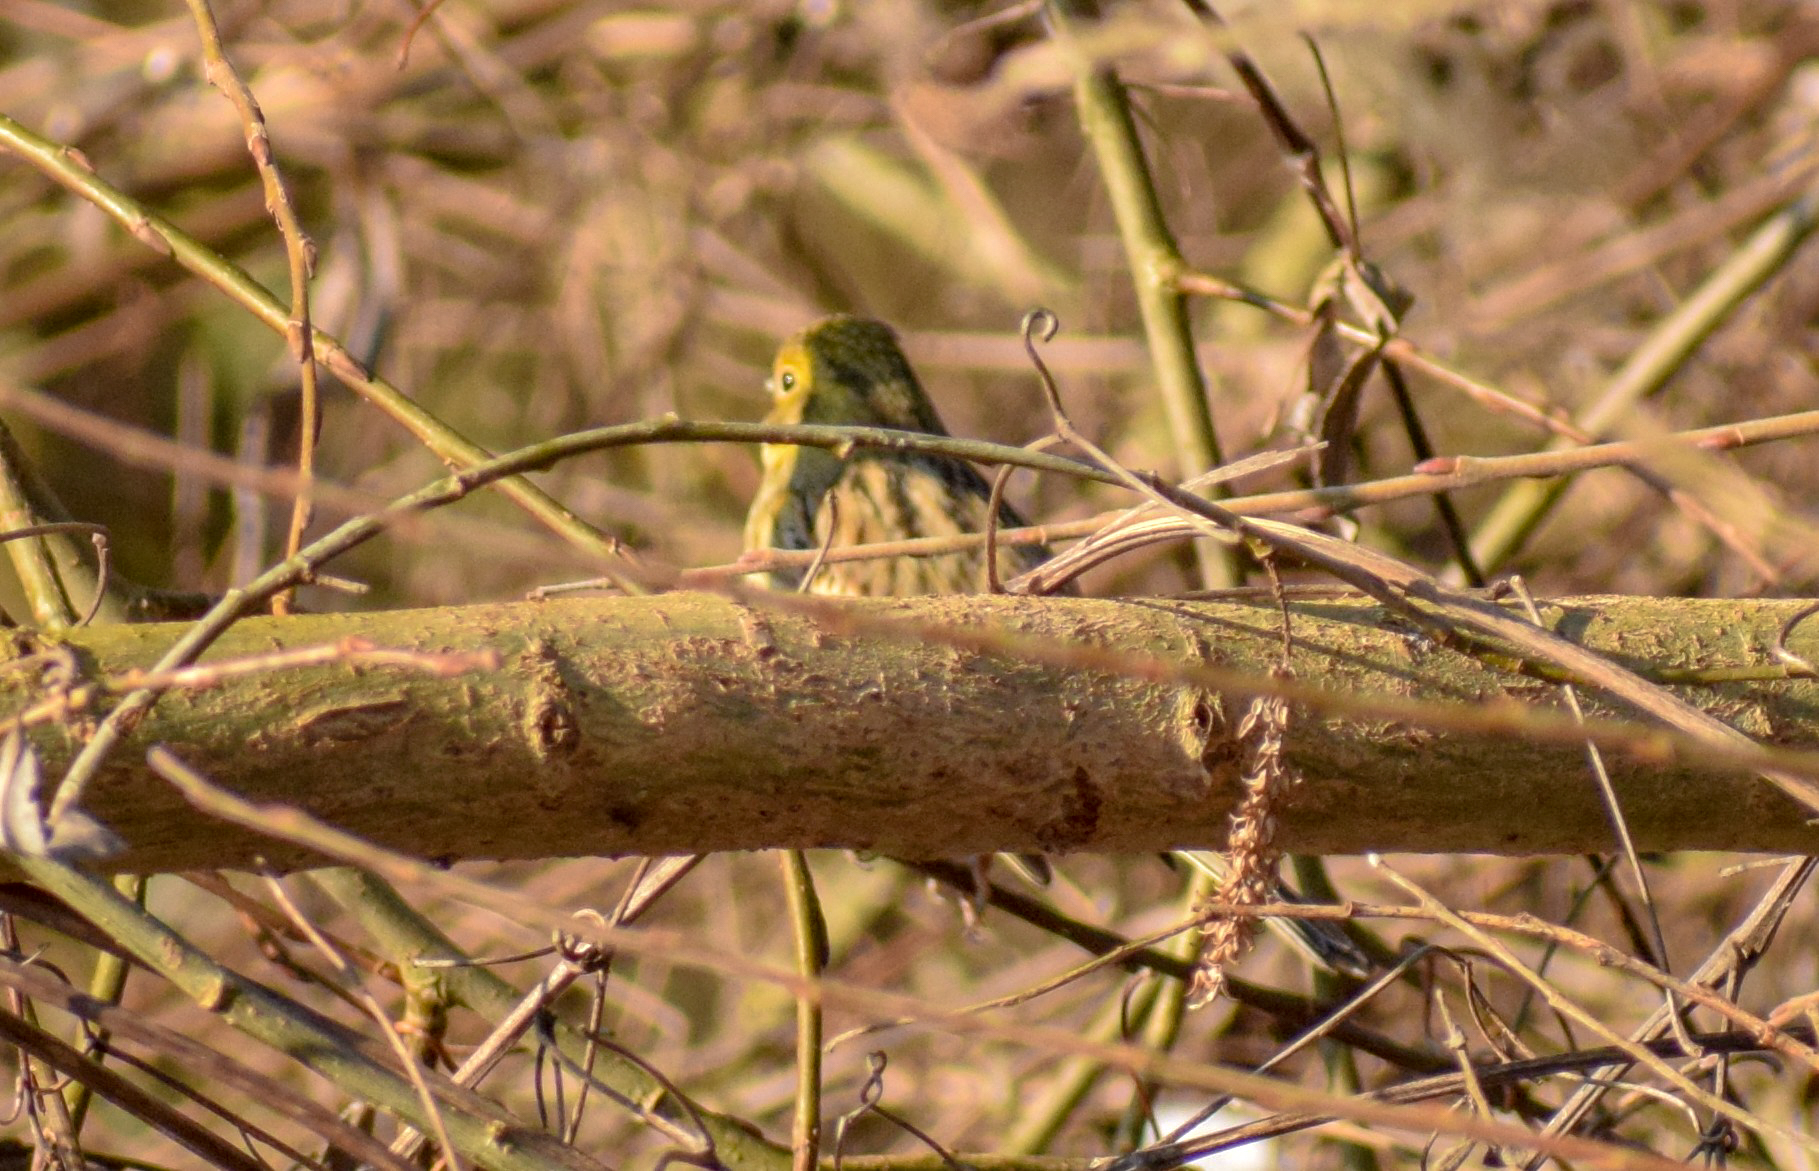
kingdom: Animalia
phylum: Chordata
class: Aves
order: Passeriformes
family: Emberizidae
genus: Emberiza
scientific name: Emberiza citrinella
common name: Yellowhammer
